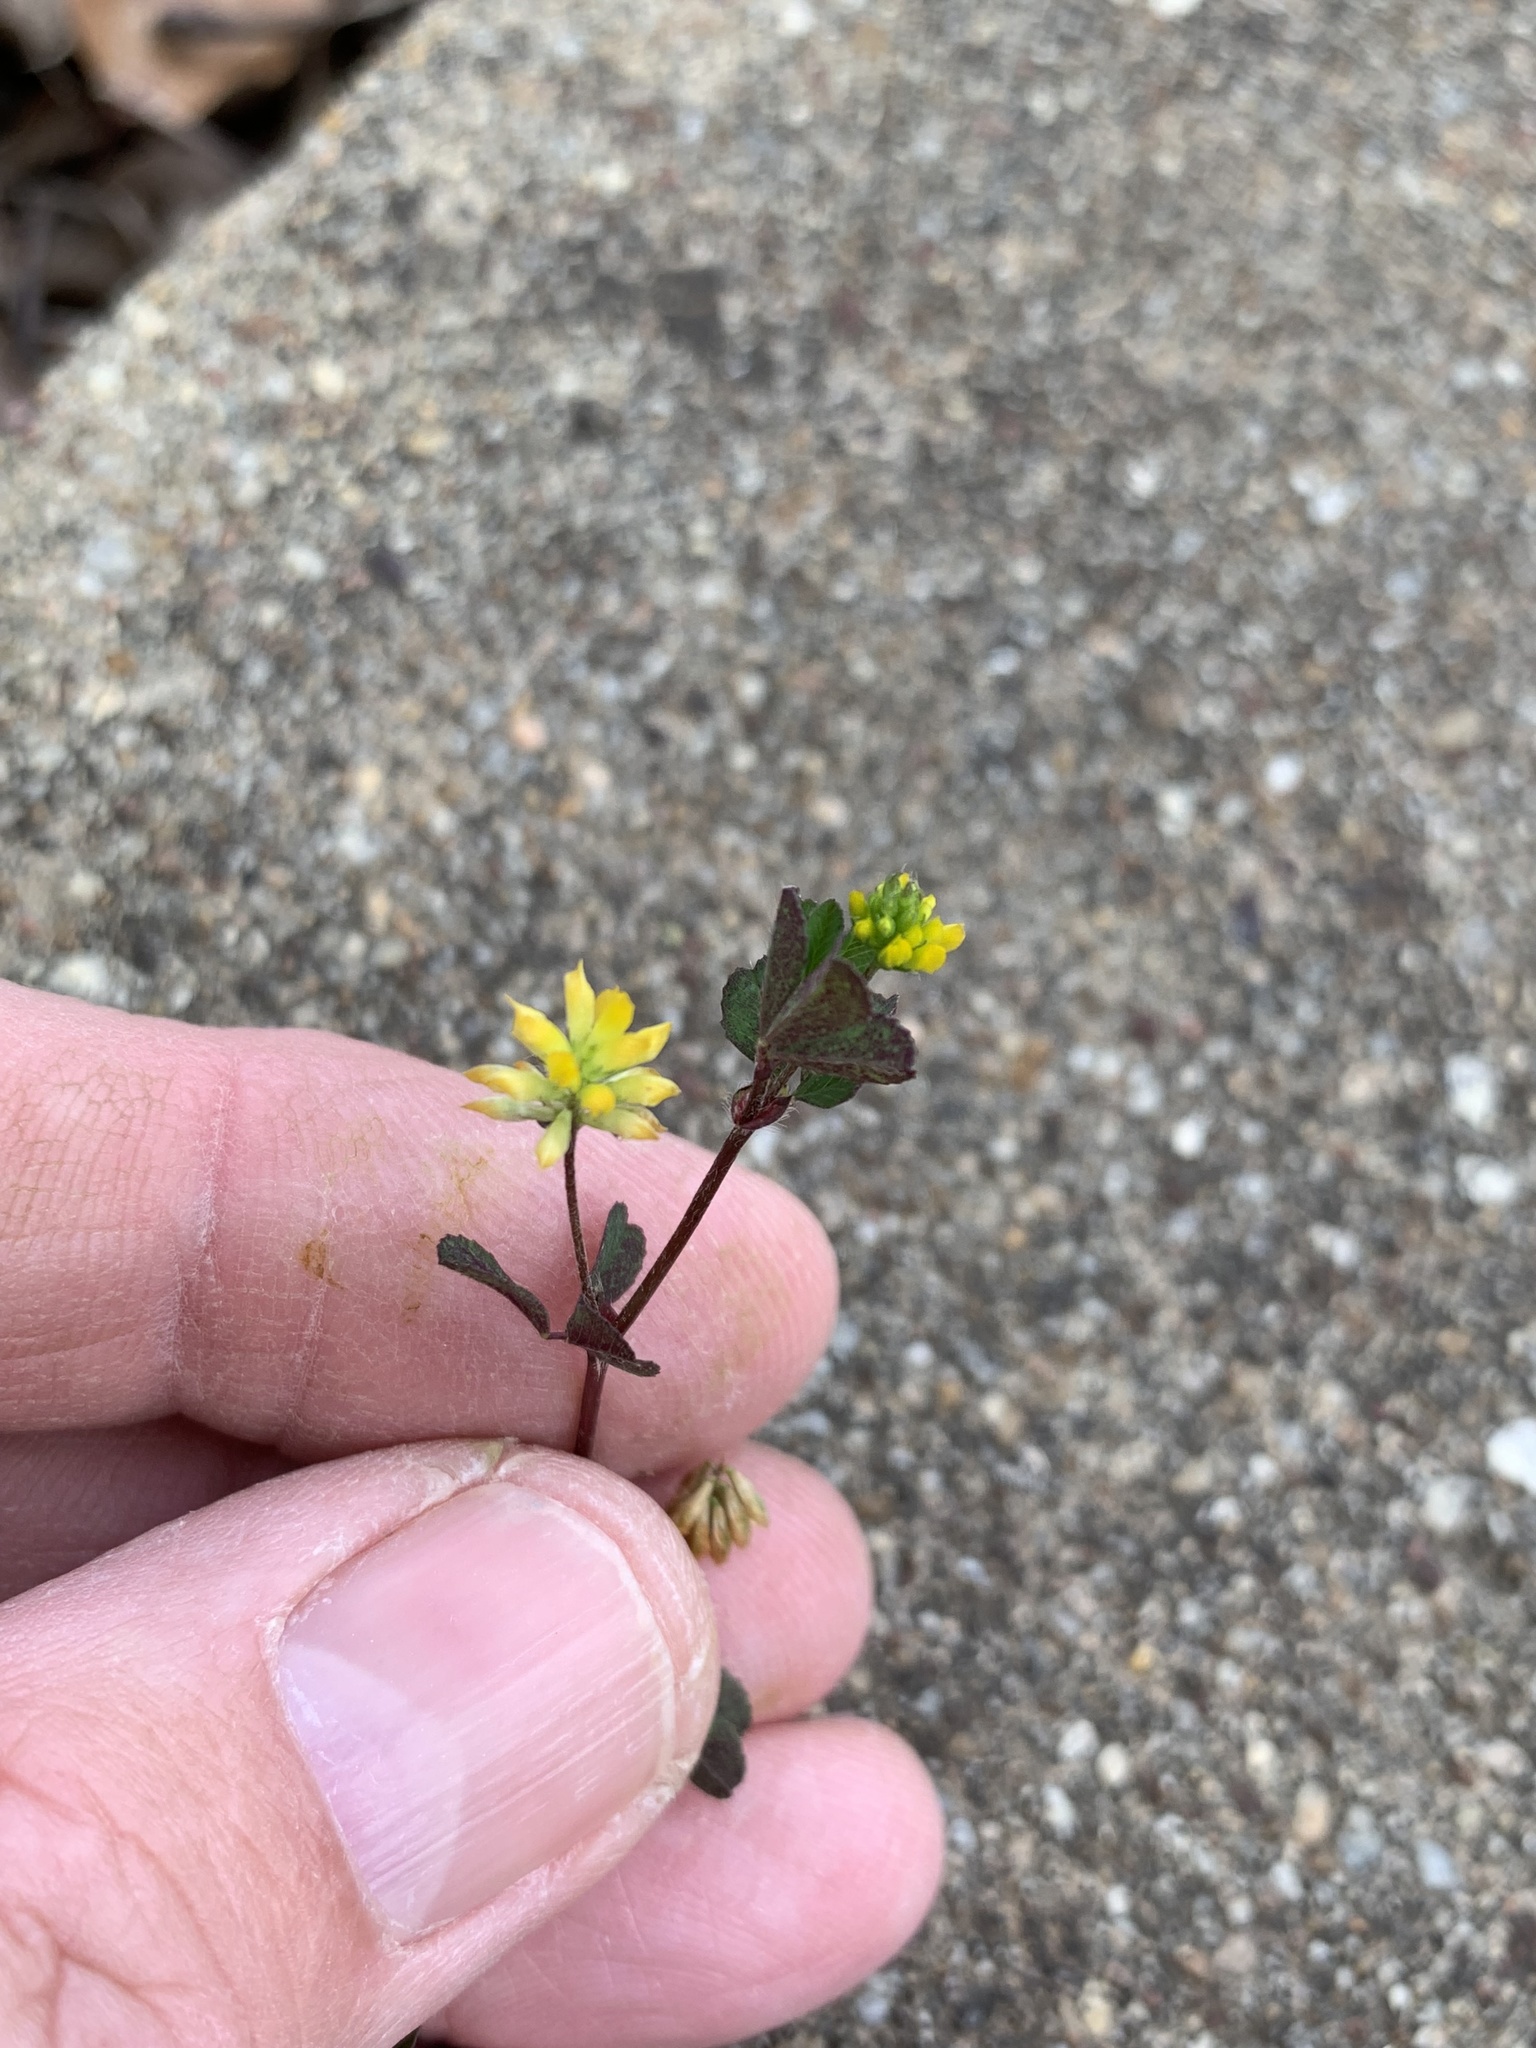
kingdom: Plantae
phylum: Tracheophyta
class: Magnoliopsida
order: Fabales
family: Fabaceae
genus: Trifolium
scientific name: Trifolium dubium
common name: Suckling clover
